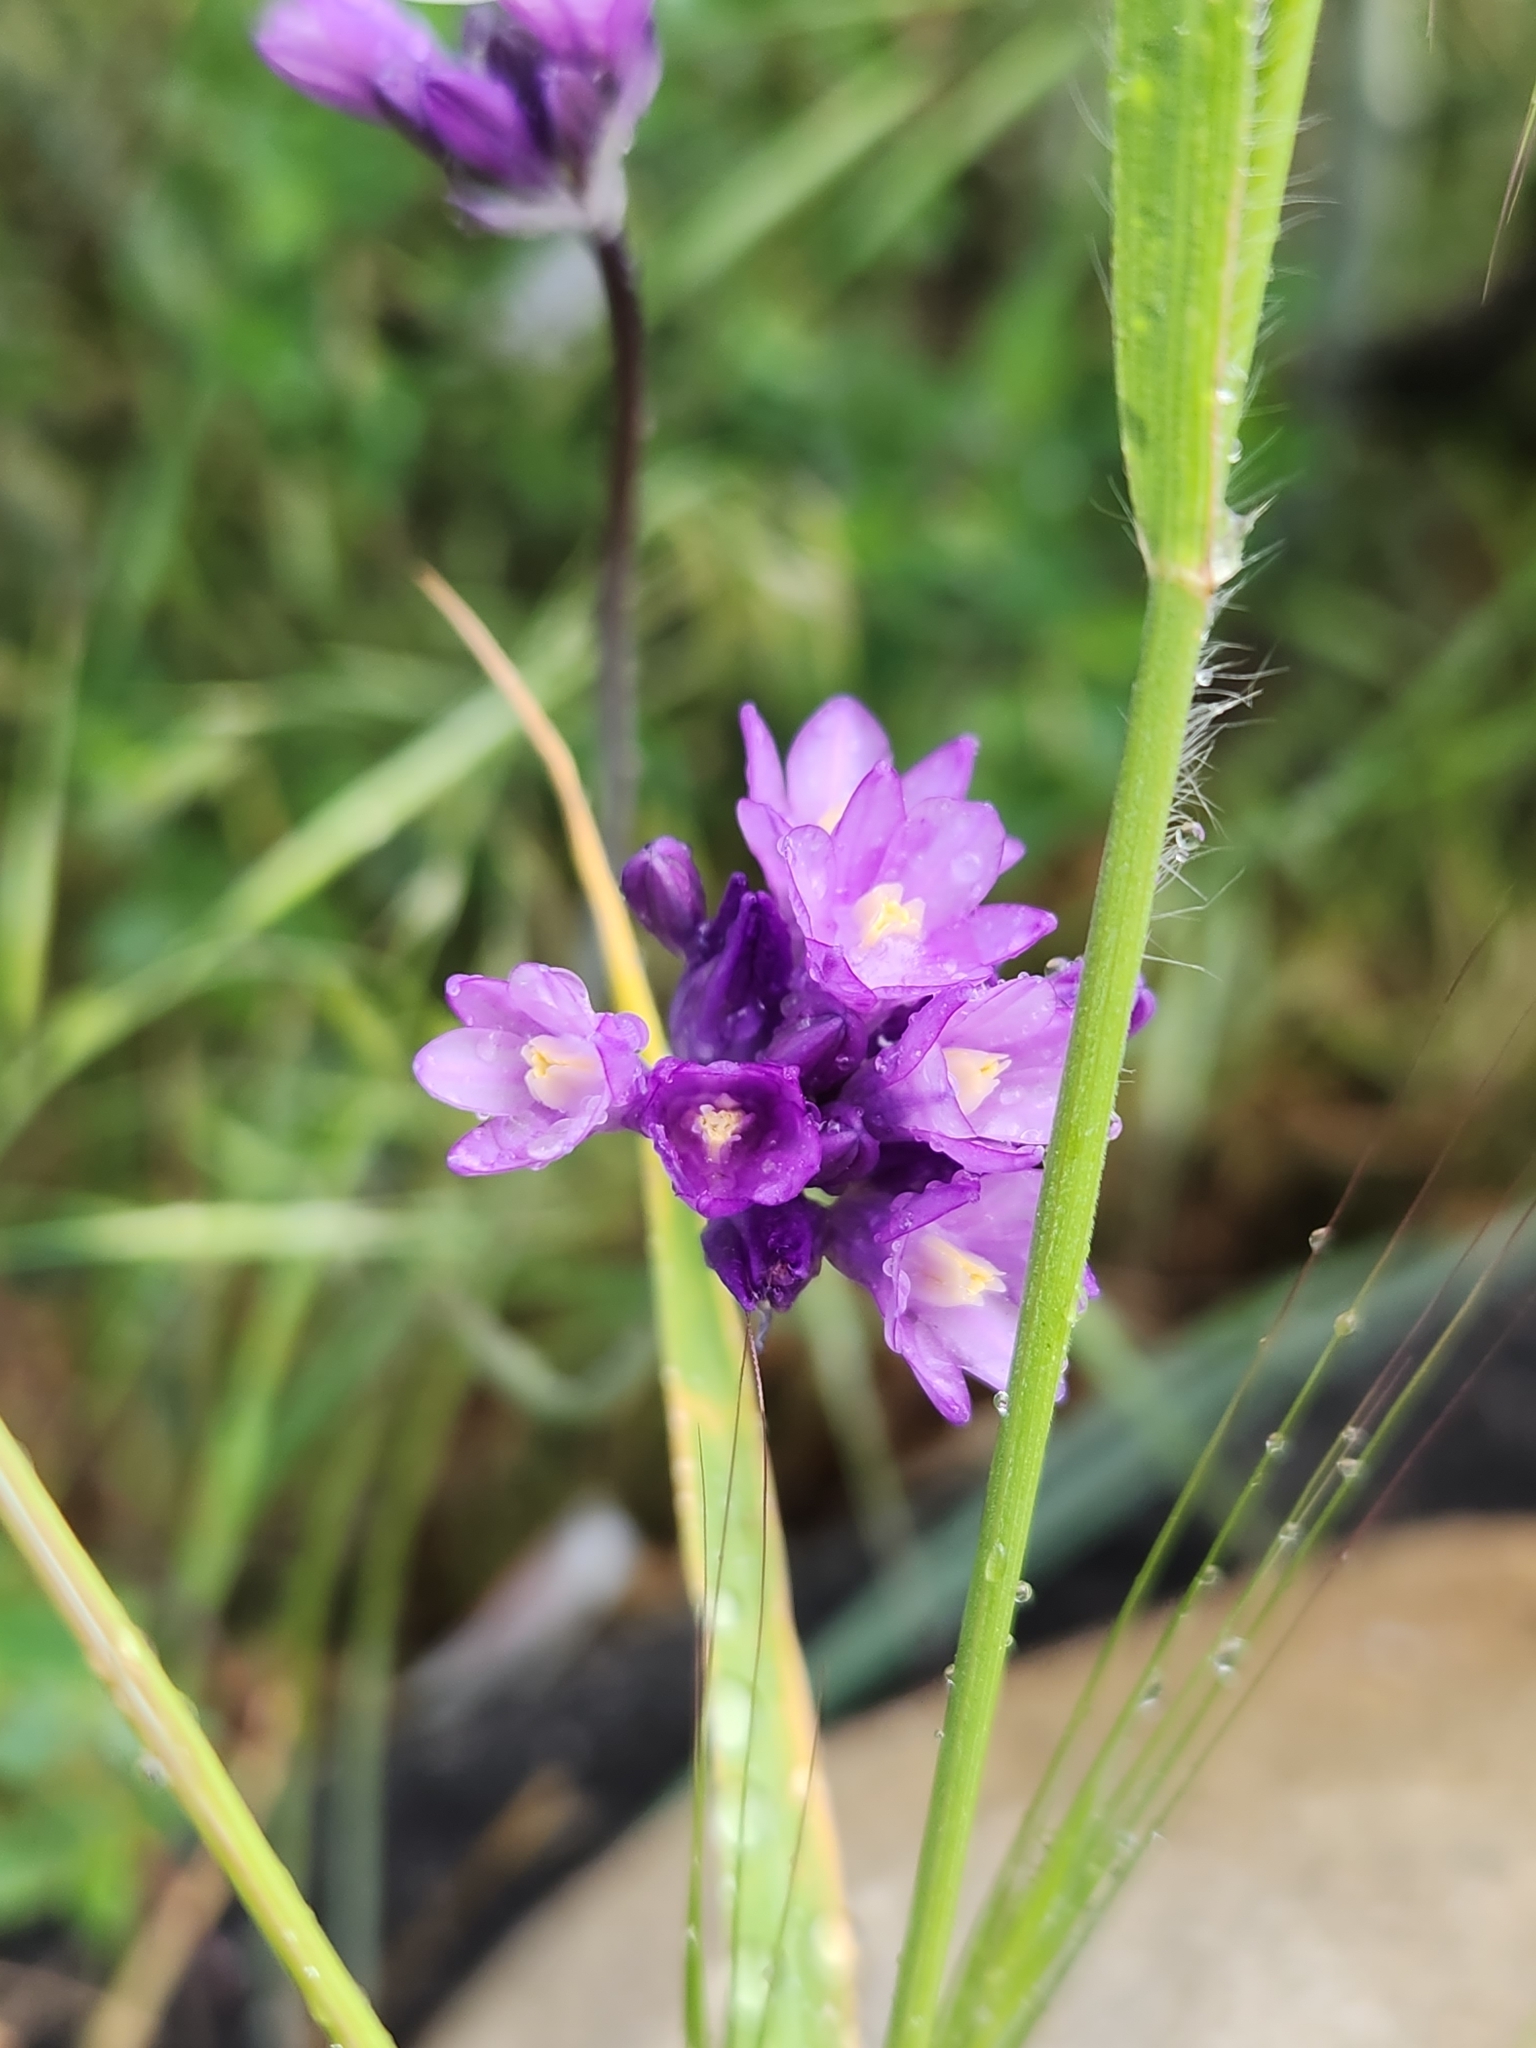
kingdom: Plantae
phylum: Tracheophyta
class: Liliopsida
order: Asparagales
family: Asparagaceae
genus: Dipterostemon
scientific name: Dipterostemon capitatus
